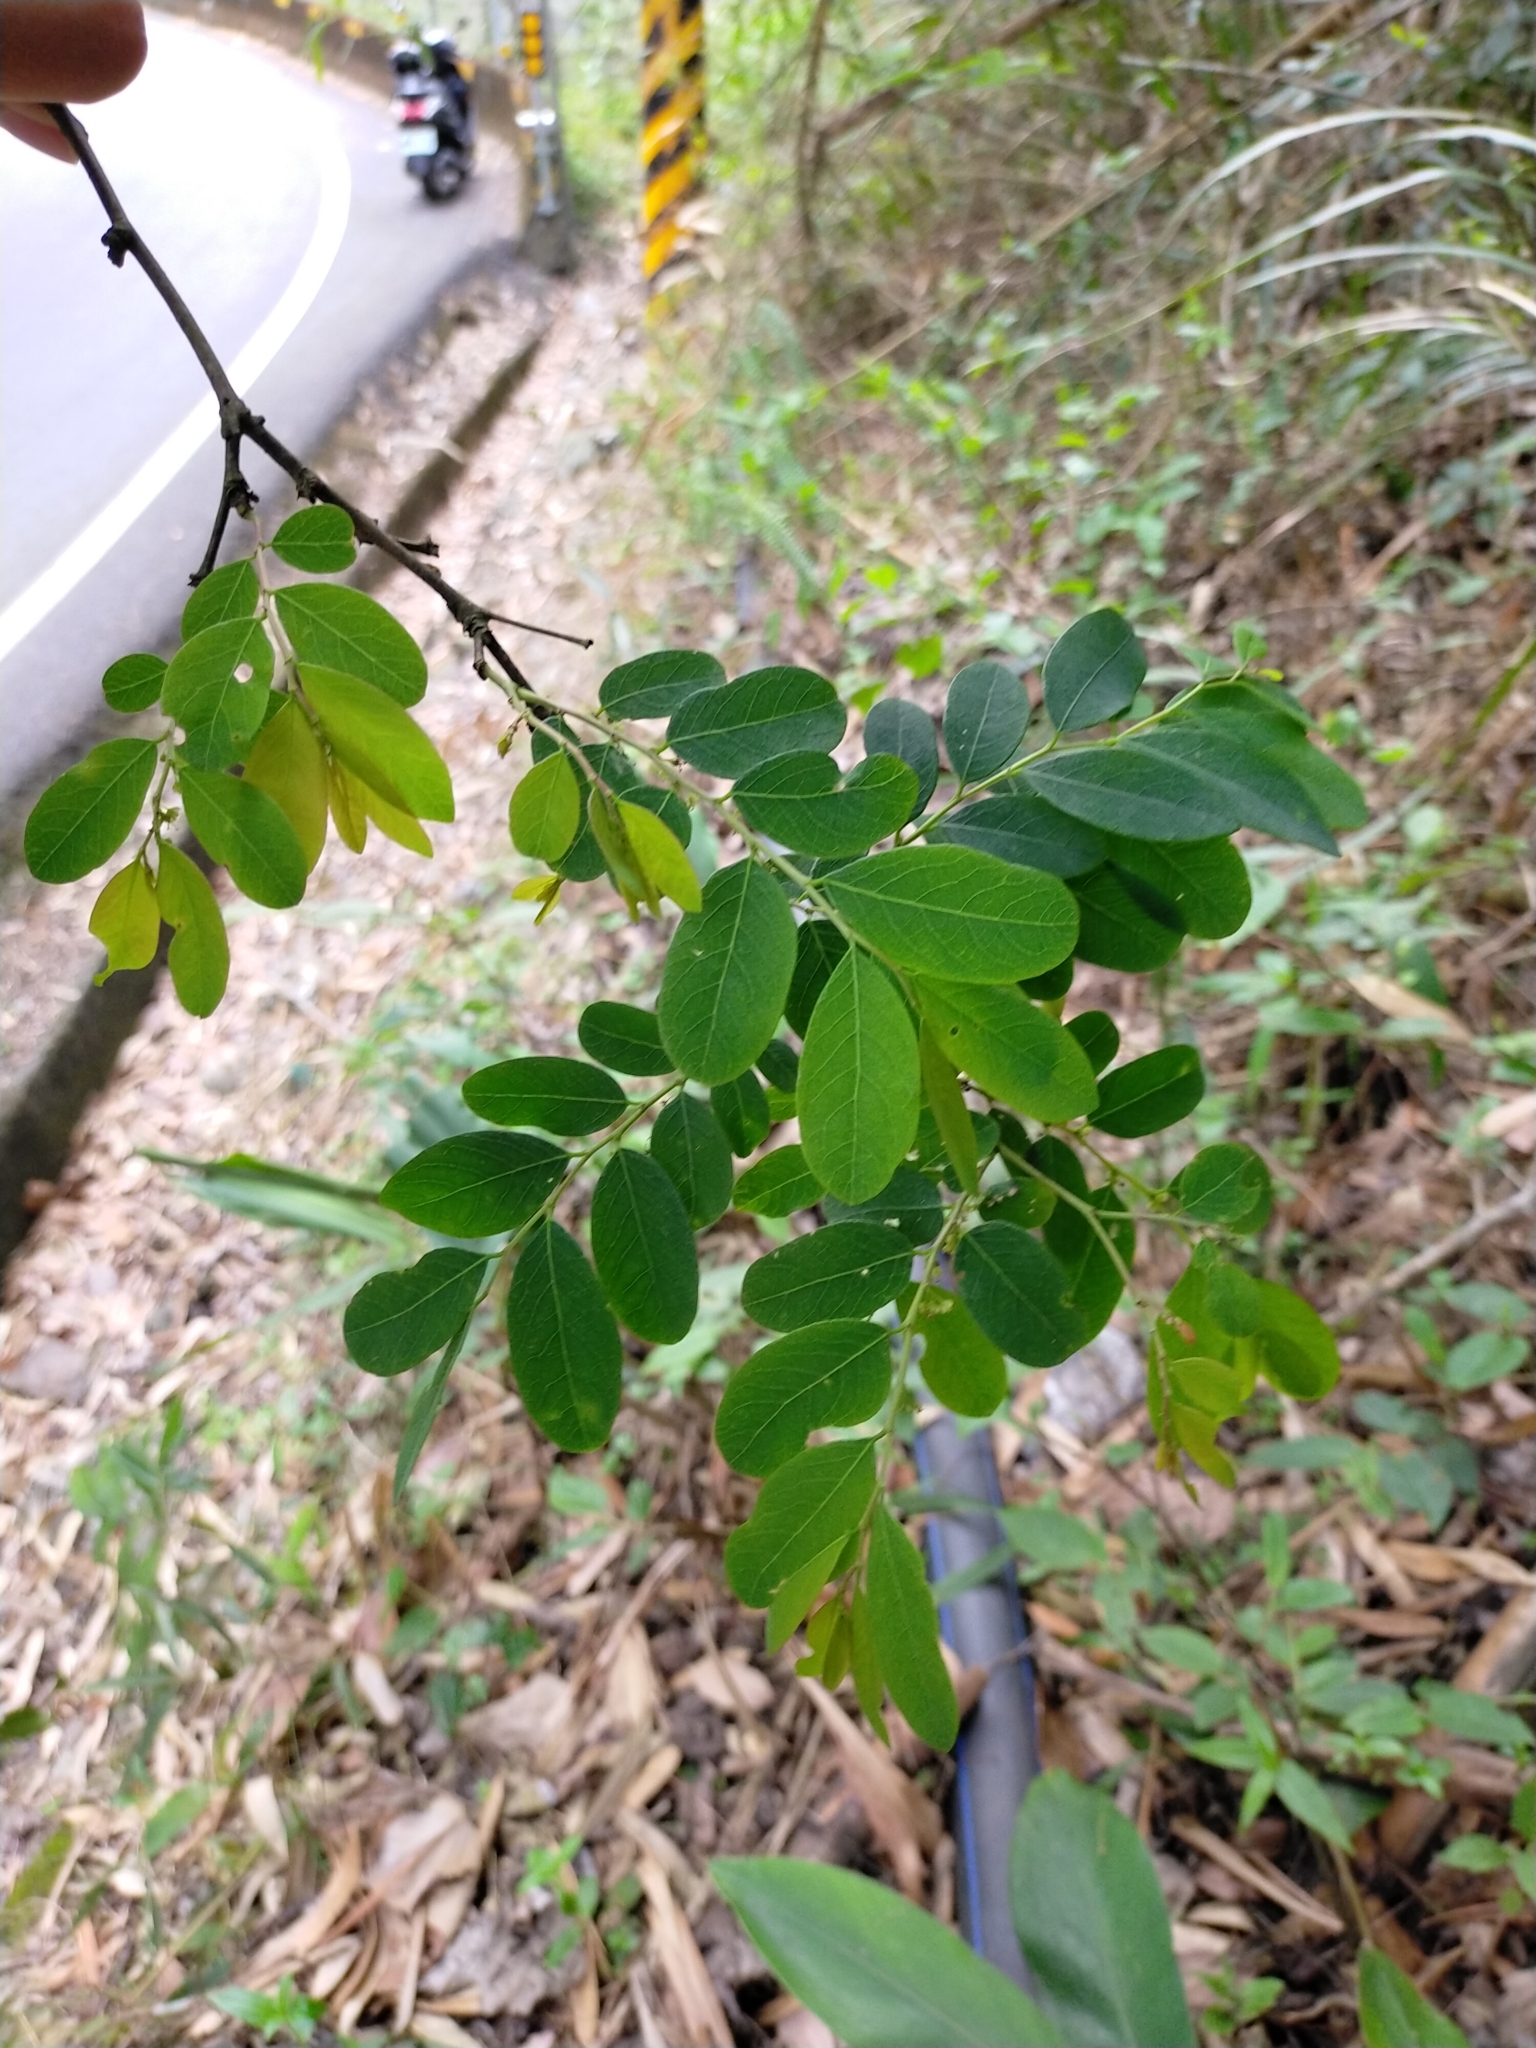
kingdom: Plantae
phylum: Tracheophyta
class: Magnoliopsida
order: Malpighiales
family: Phyllanthaceae
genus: Phyllanthus
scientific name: Phyllanthus tenellus
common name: Mascarene island leaf-flower
